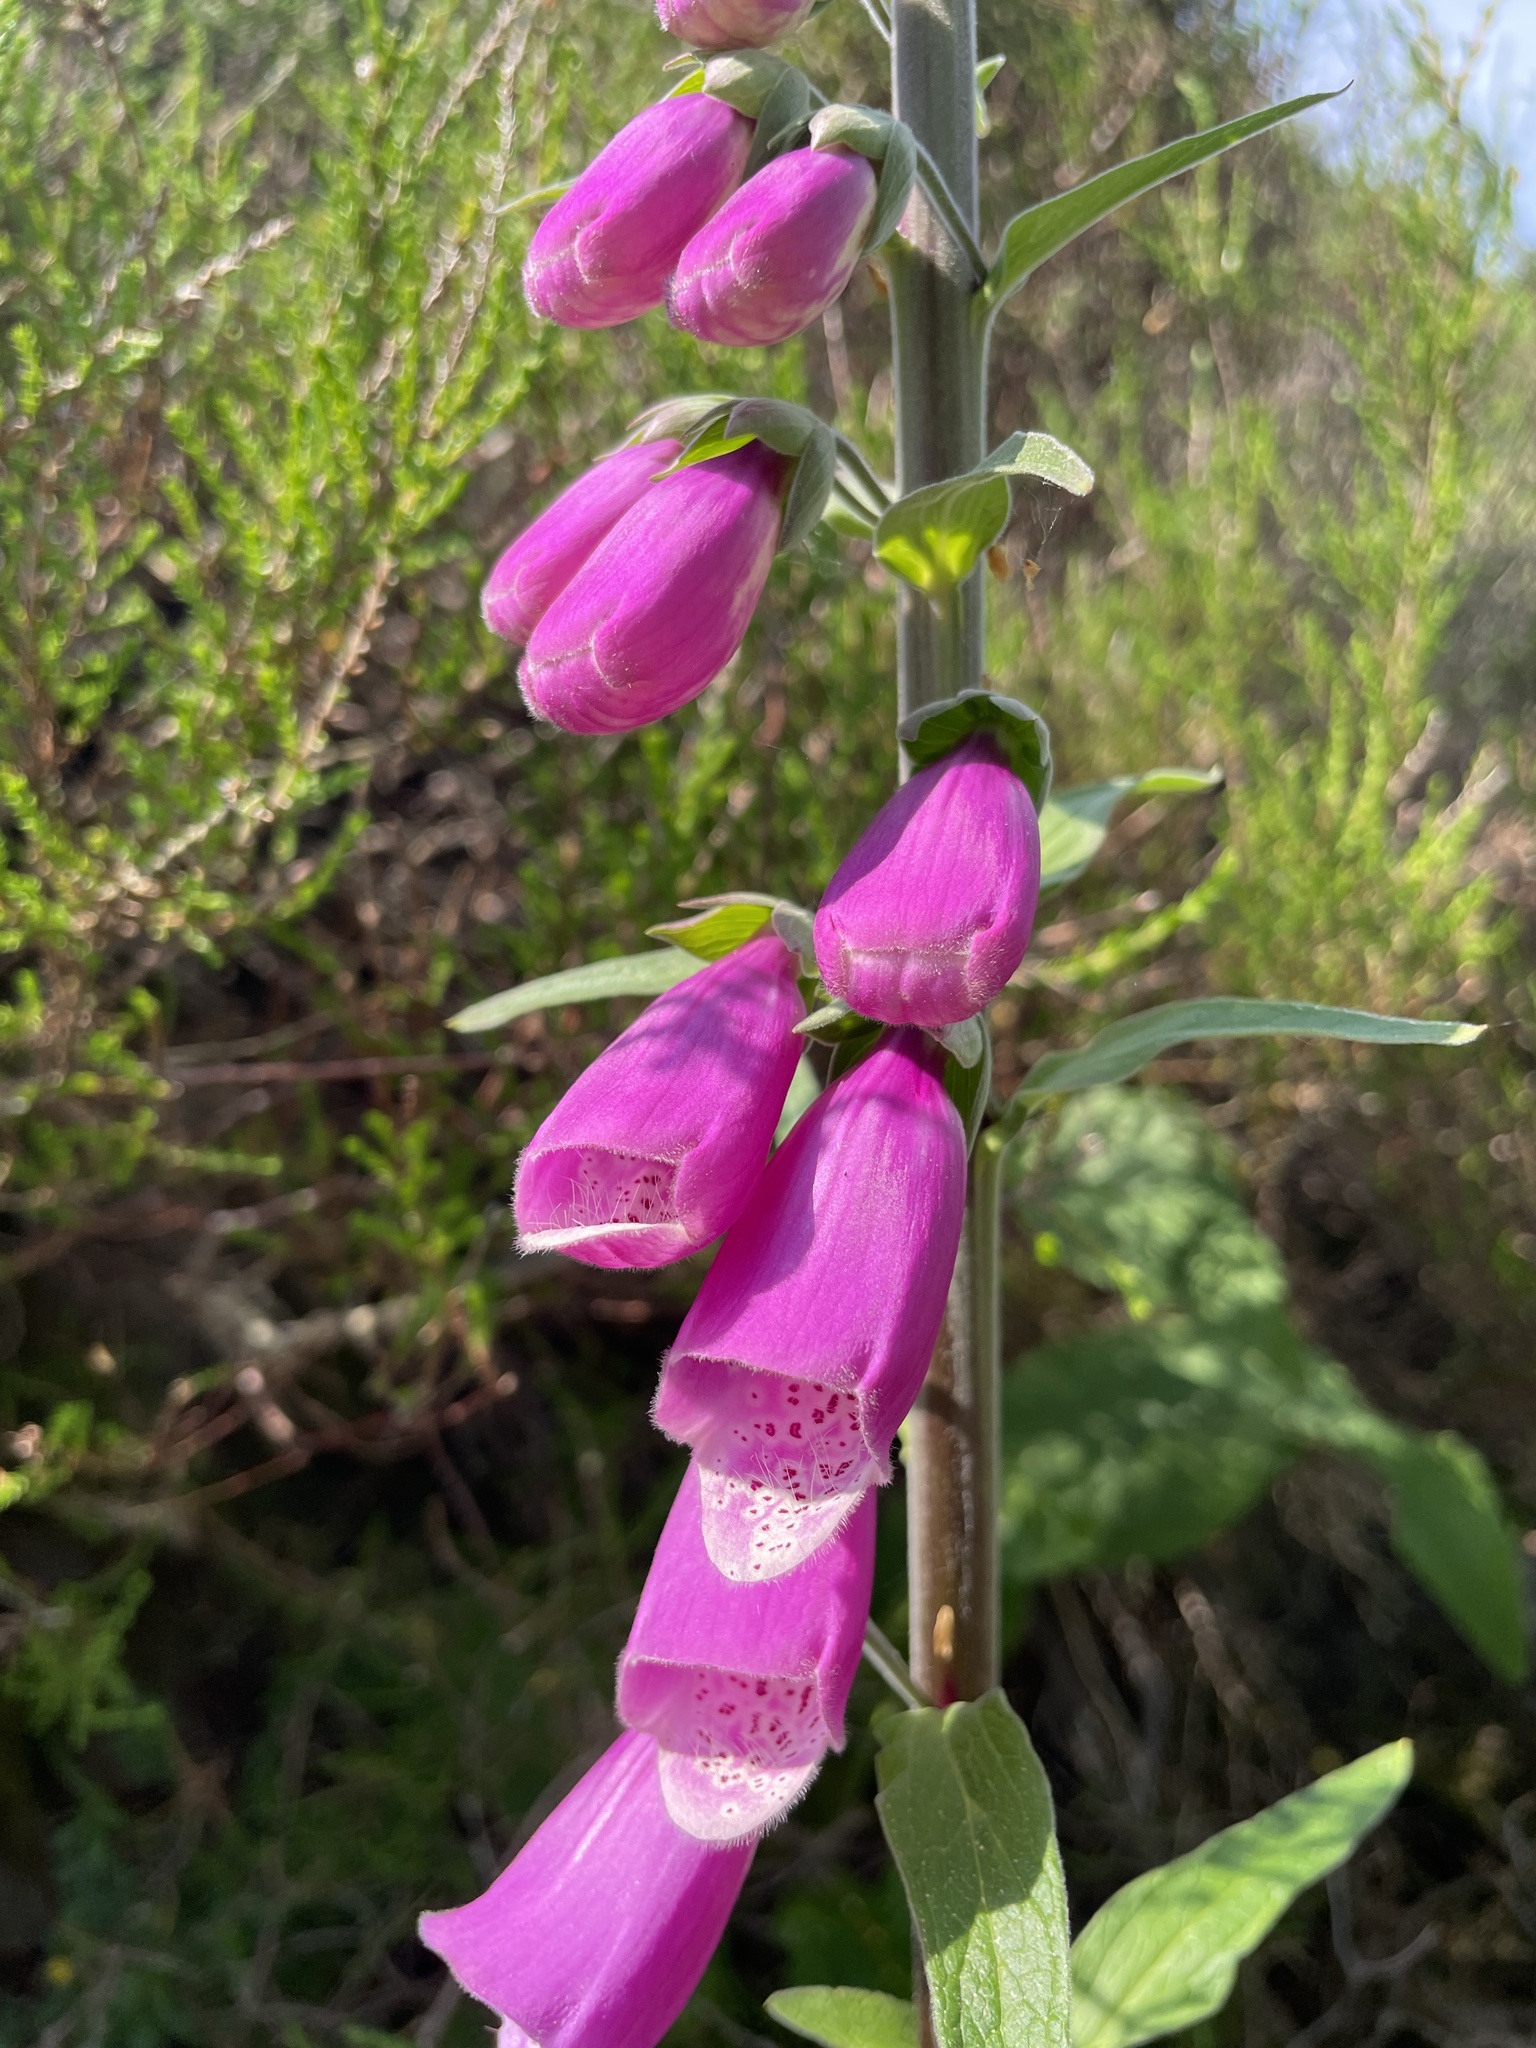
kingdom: Plantae
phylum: Tracheophyta
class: Magnoliopsida
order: Lamiales
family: Plantaginaceae
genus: Digitalis
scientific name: Digitalis purpurea
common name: Foxglove
